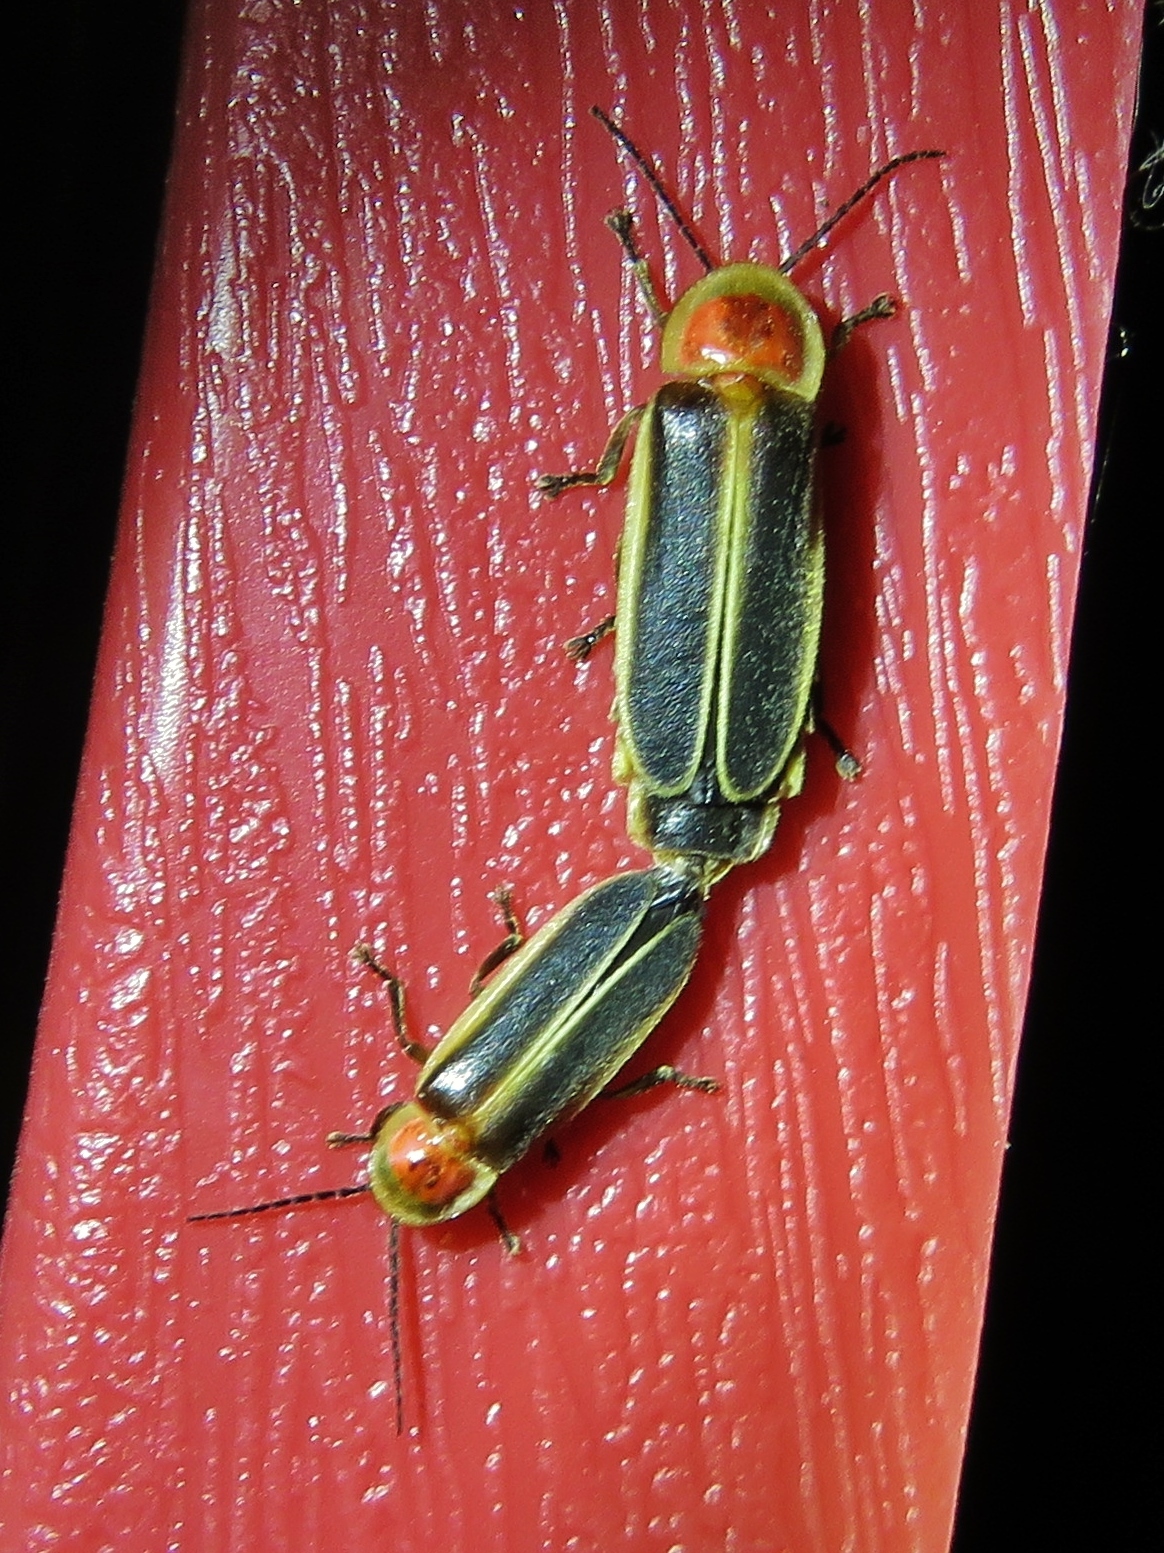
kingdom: Animalia
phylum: Arthropoda
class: Insecta
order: Coleoptera
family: Lampyridae
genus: Photinus
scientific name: Photinus pyralis
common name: Big dipper firefly
